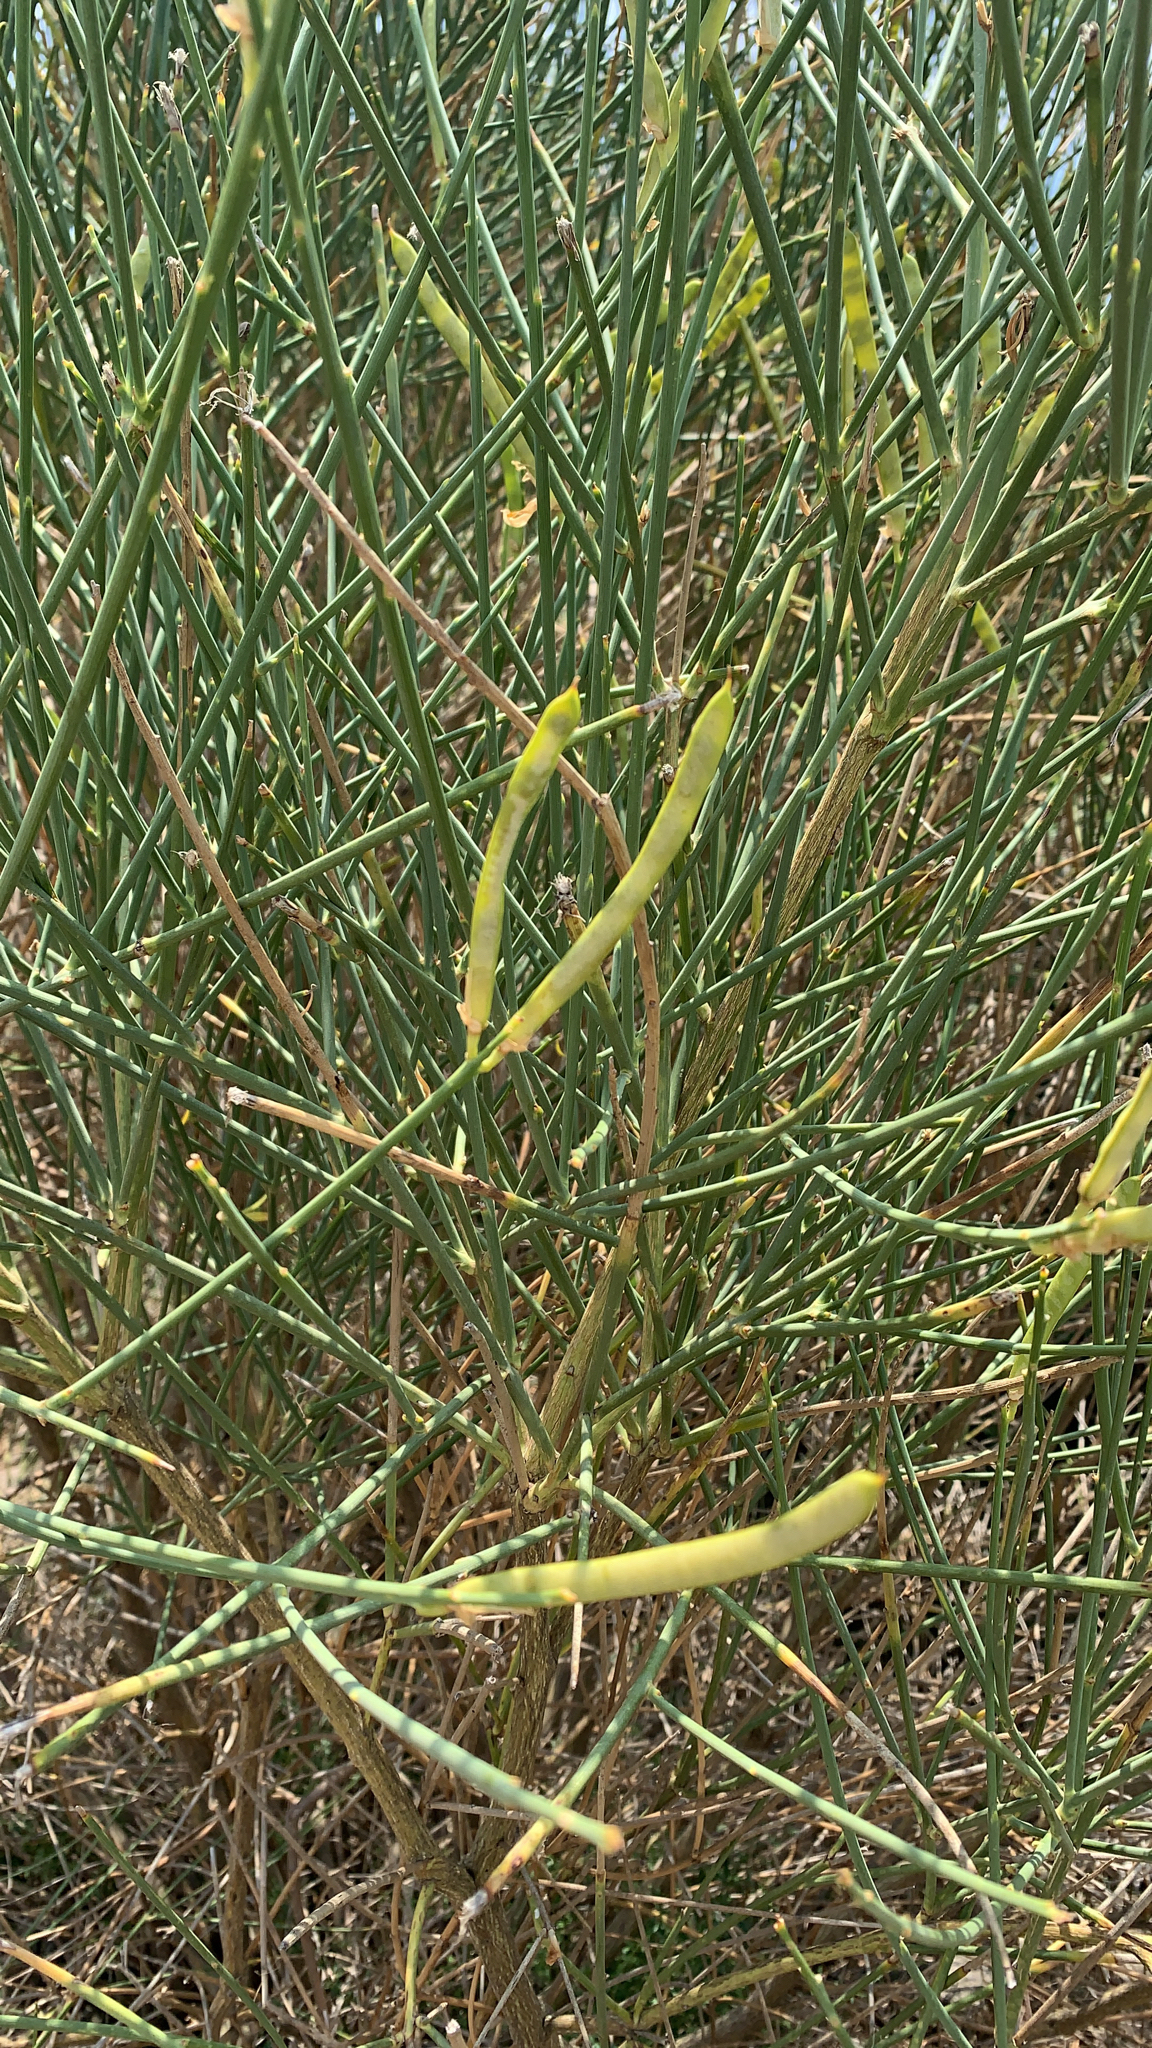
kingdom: Plantae
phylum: Tracheophyta
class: Magnoliopsida
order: Fabales
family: Fabaceae
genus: Spartium
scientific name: Spartium junceum
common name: Spanish broom
